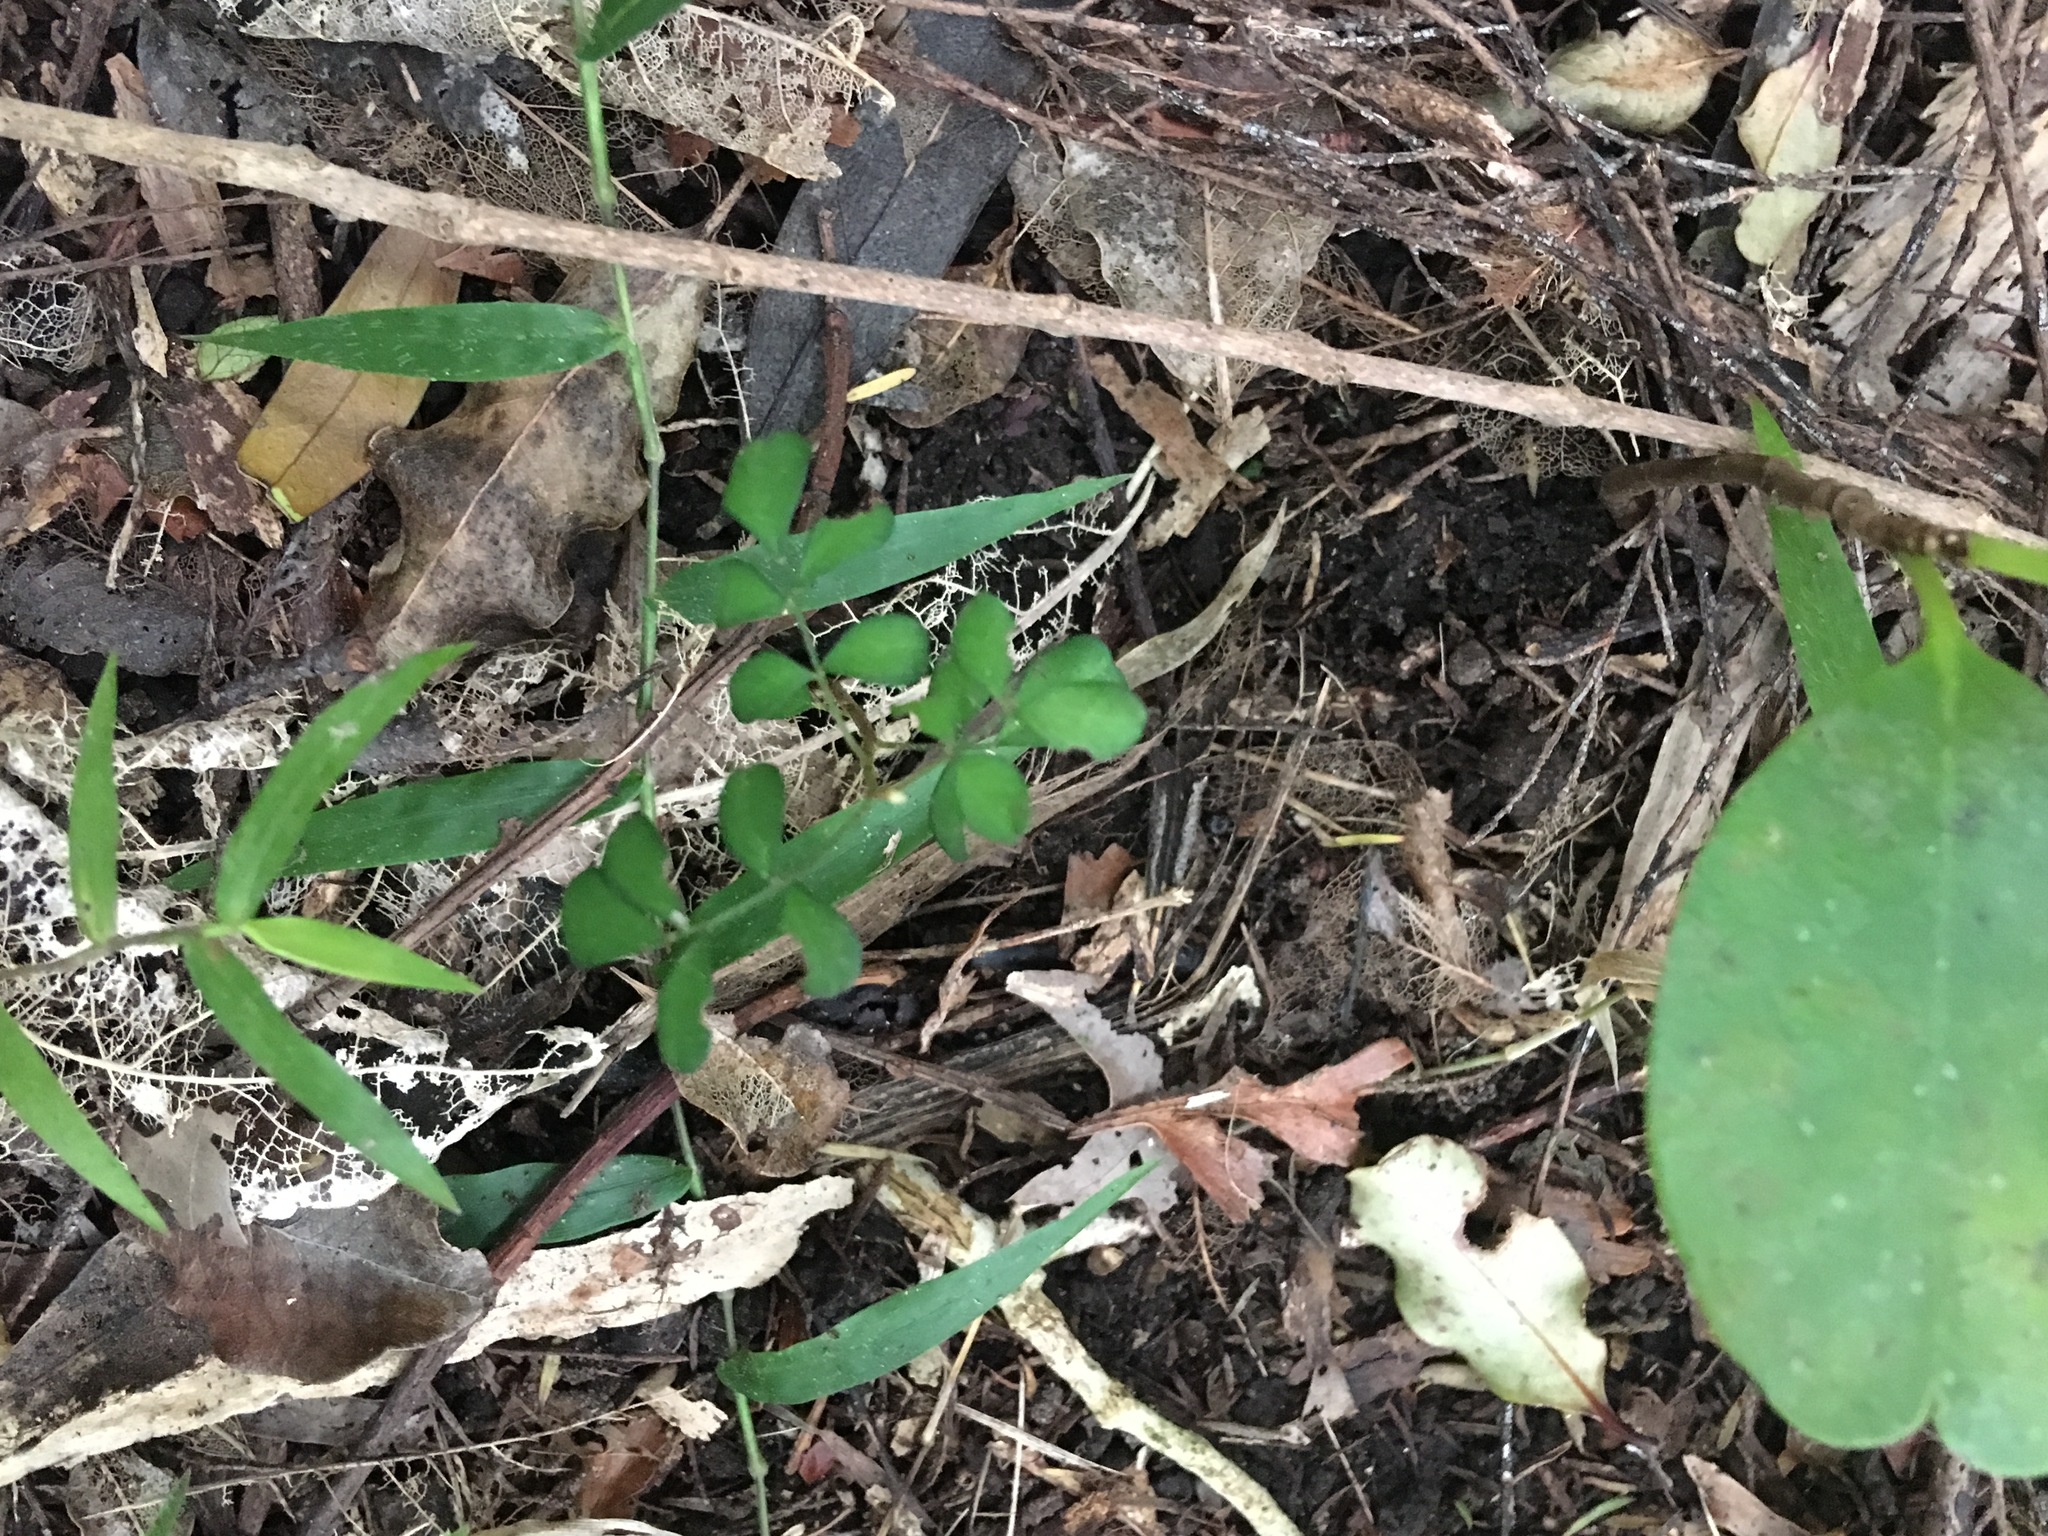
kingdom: Plantae
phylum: Tracheophyta
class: Liliopsida
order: Poales
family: Poaceae
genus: Oplismenus
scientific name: Oplismenus hirtellus
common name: Basketgrass
